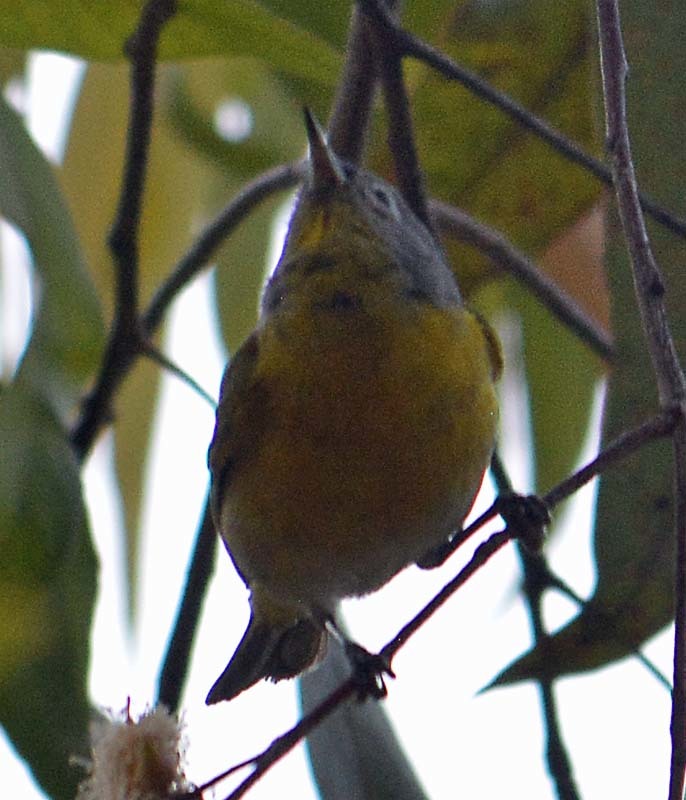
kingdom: Animalia
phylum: Chordata
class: Aves
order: Passeriformes
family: Parulidae
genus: Leiothlypis
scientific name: Leiothlypis ruficapilla
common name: Nashville warbler
